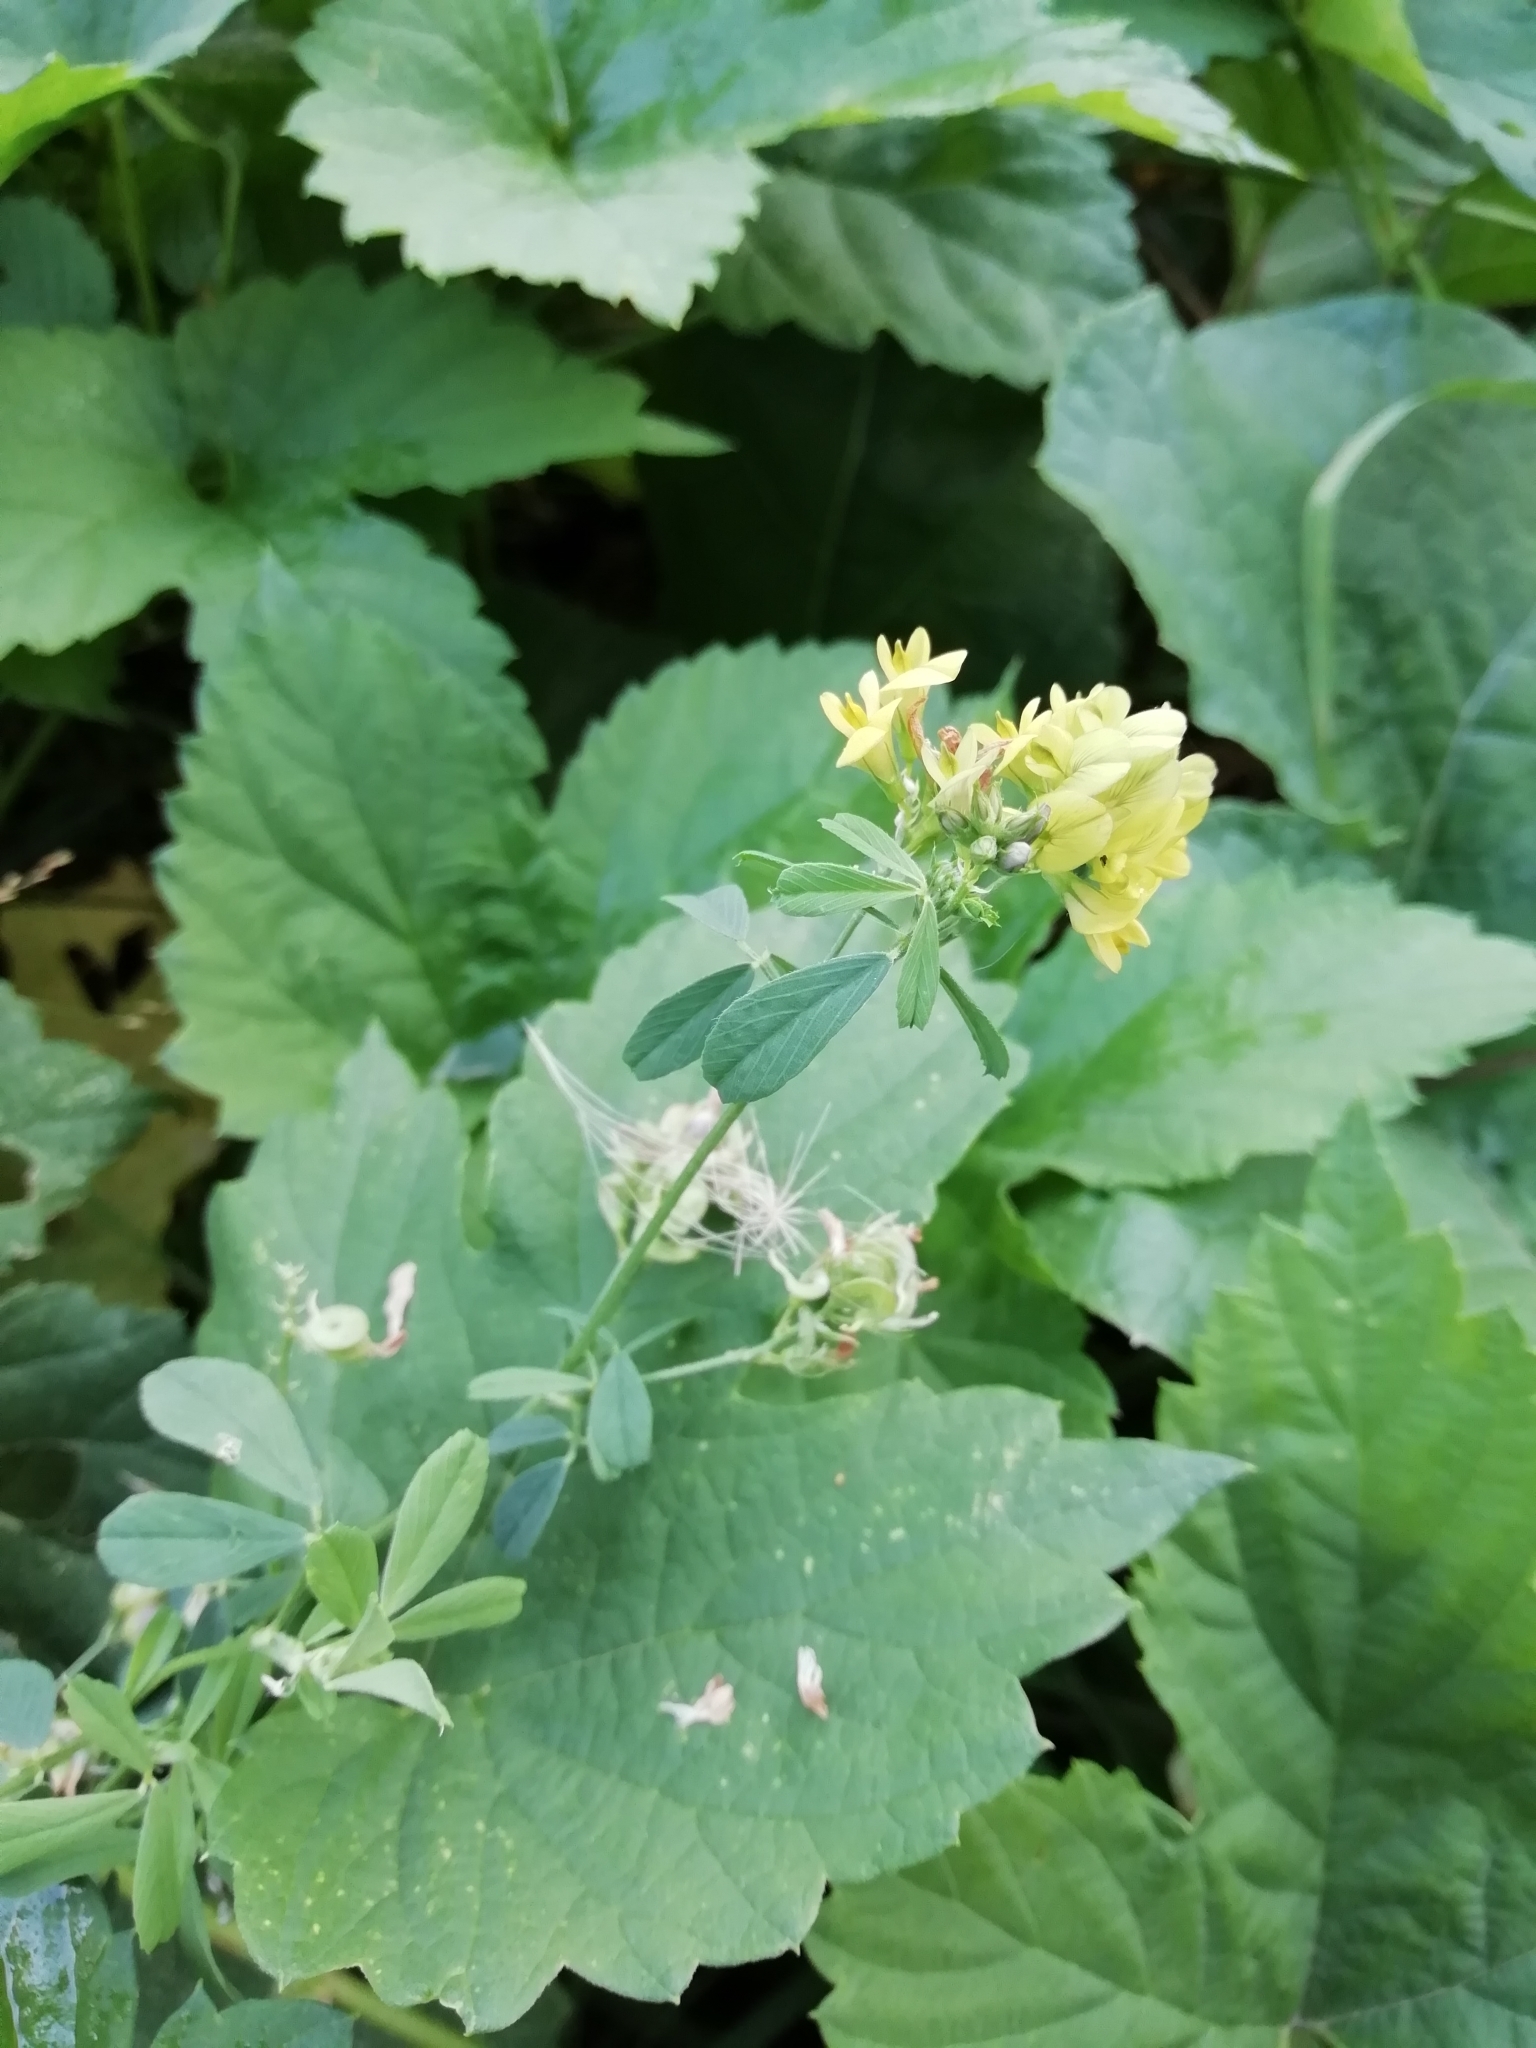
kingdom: Plantae
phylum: Tracheophyta
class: Magnoliopsida
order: Fabales
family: Fabaceae
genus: Medicago
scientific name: Medicago varia
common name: Sand lucerne
